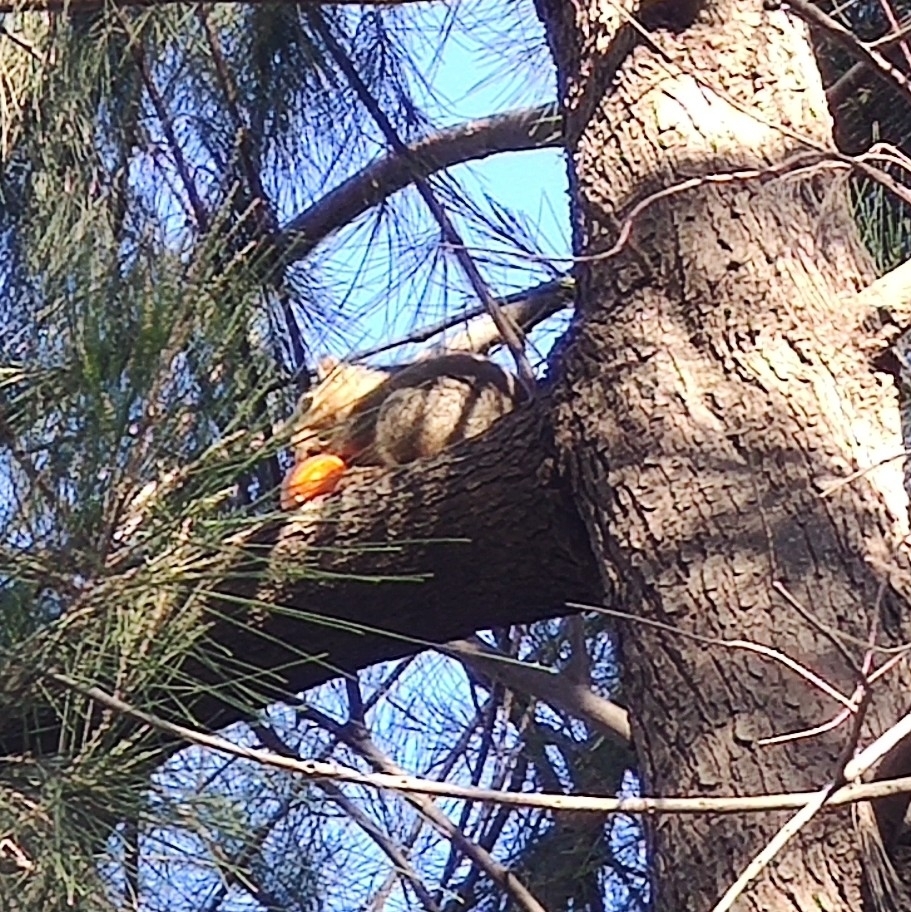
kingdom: Animalia
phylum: Chordata
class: Mammalia
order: Rodentia
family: Sciuridae
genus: Sciurus
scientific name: Sciurus niger
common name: Fox squirrel
